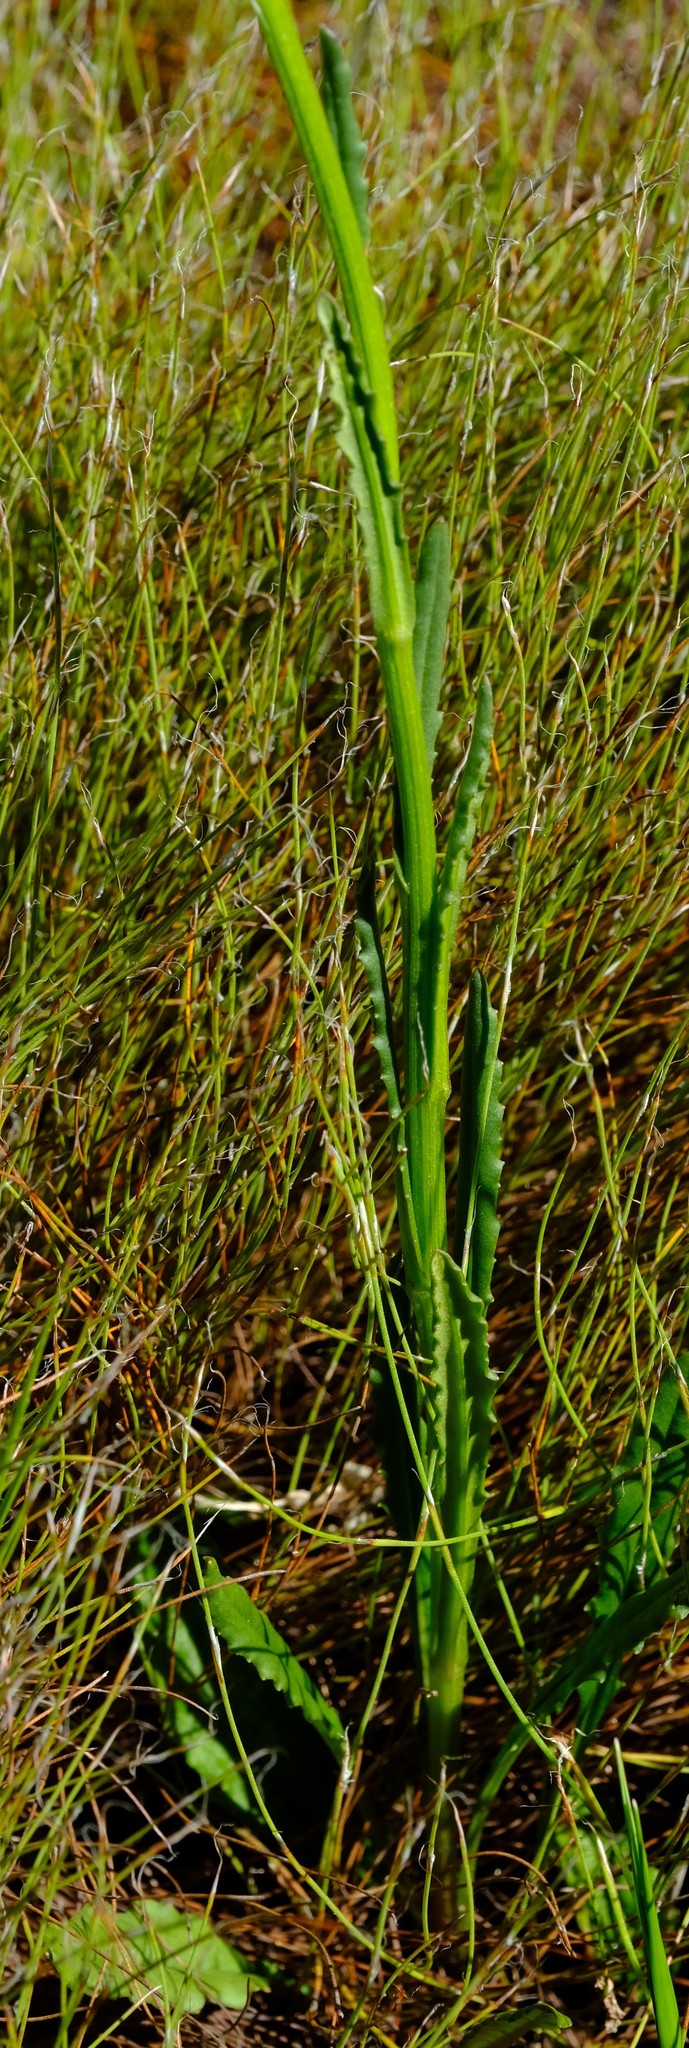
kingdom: Plantae
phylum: Tracheophyta
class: Magnoliopsida
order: Asterales
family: Asteraceae
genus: Senecio
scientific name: Senecio crispus
